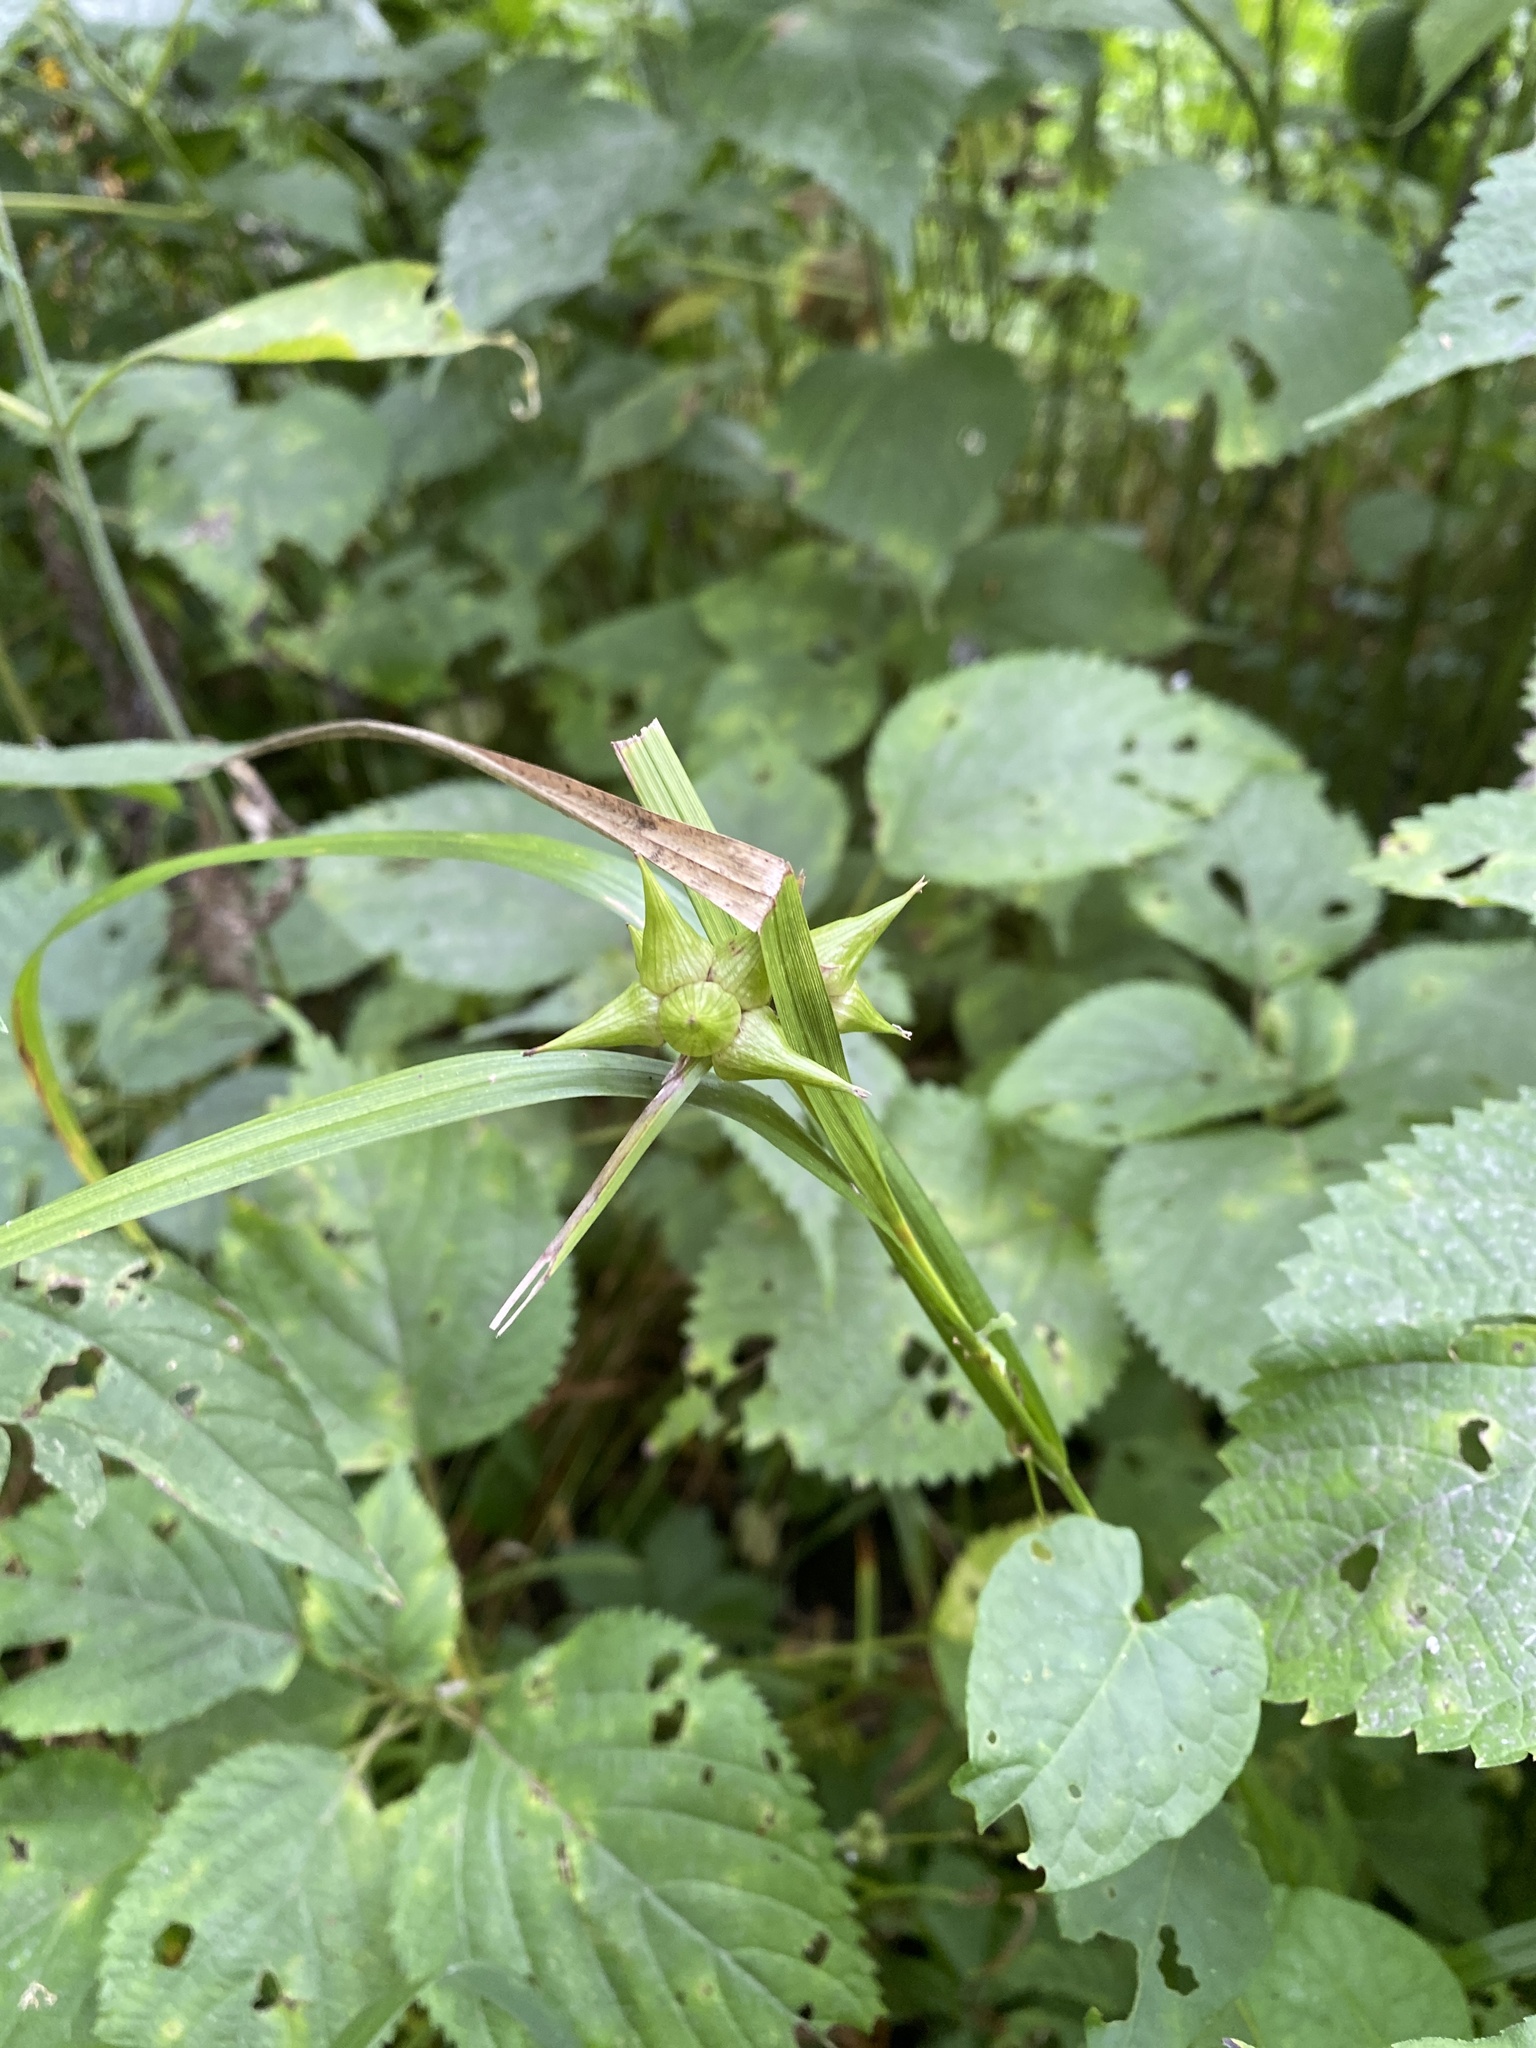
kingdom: Plantae
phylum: Tracheophyta
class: Liliopsida
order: Poales
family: Cyperaceae
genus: Carex
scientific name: Carex grayi
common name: Asa gray's sedge
